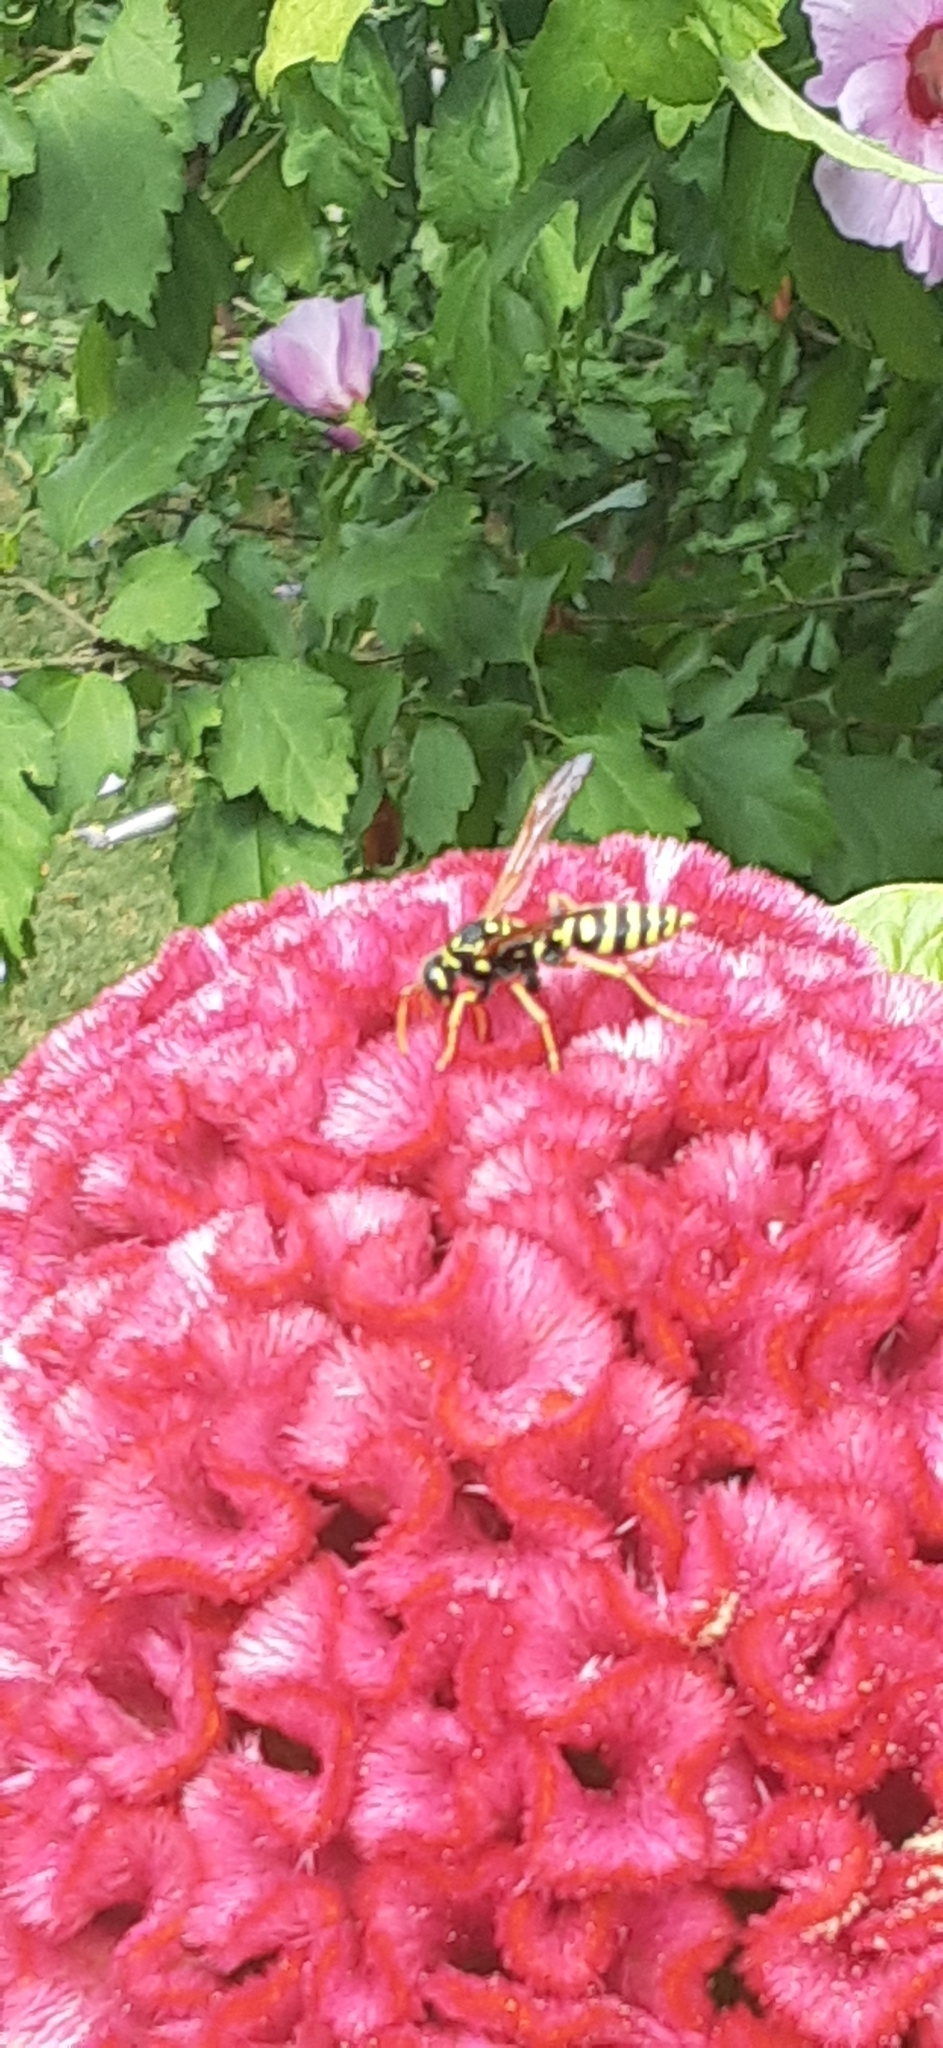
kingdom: Animalia
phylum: Arthropoda
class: Insecta
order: Hymenoptera
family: Eumenidae
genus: Polistes
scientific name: Polistes dominula
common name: Paper wasp
